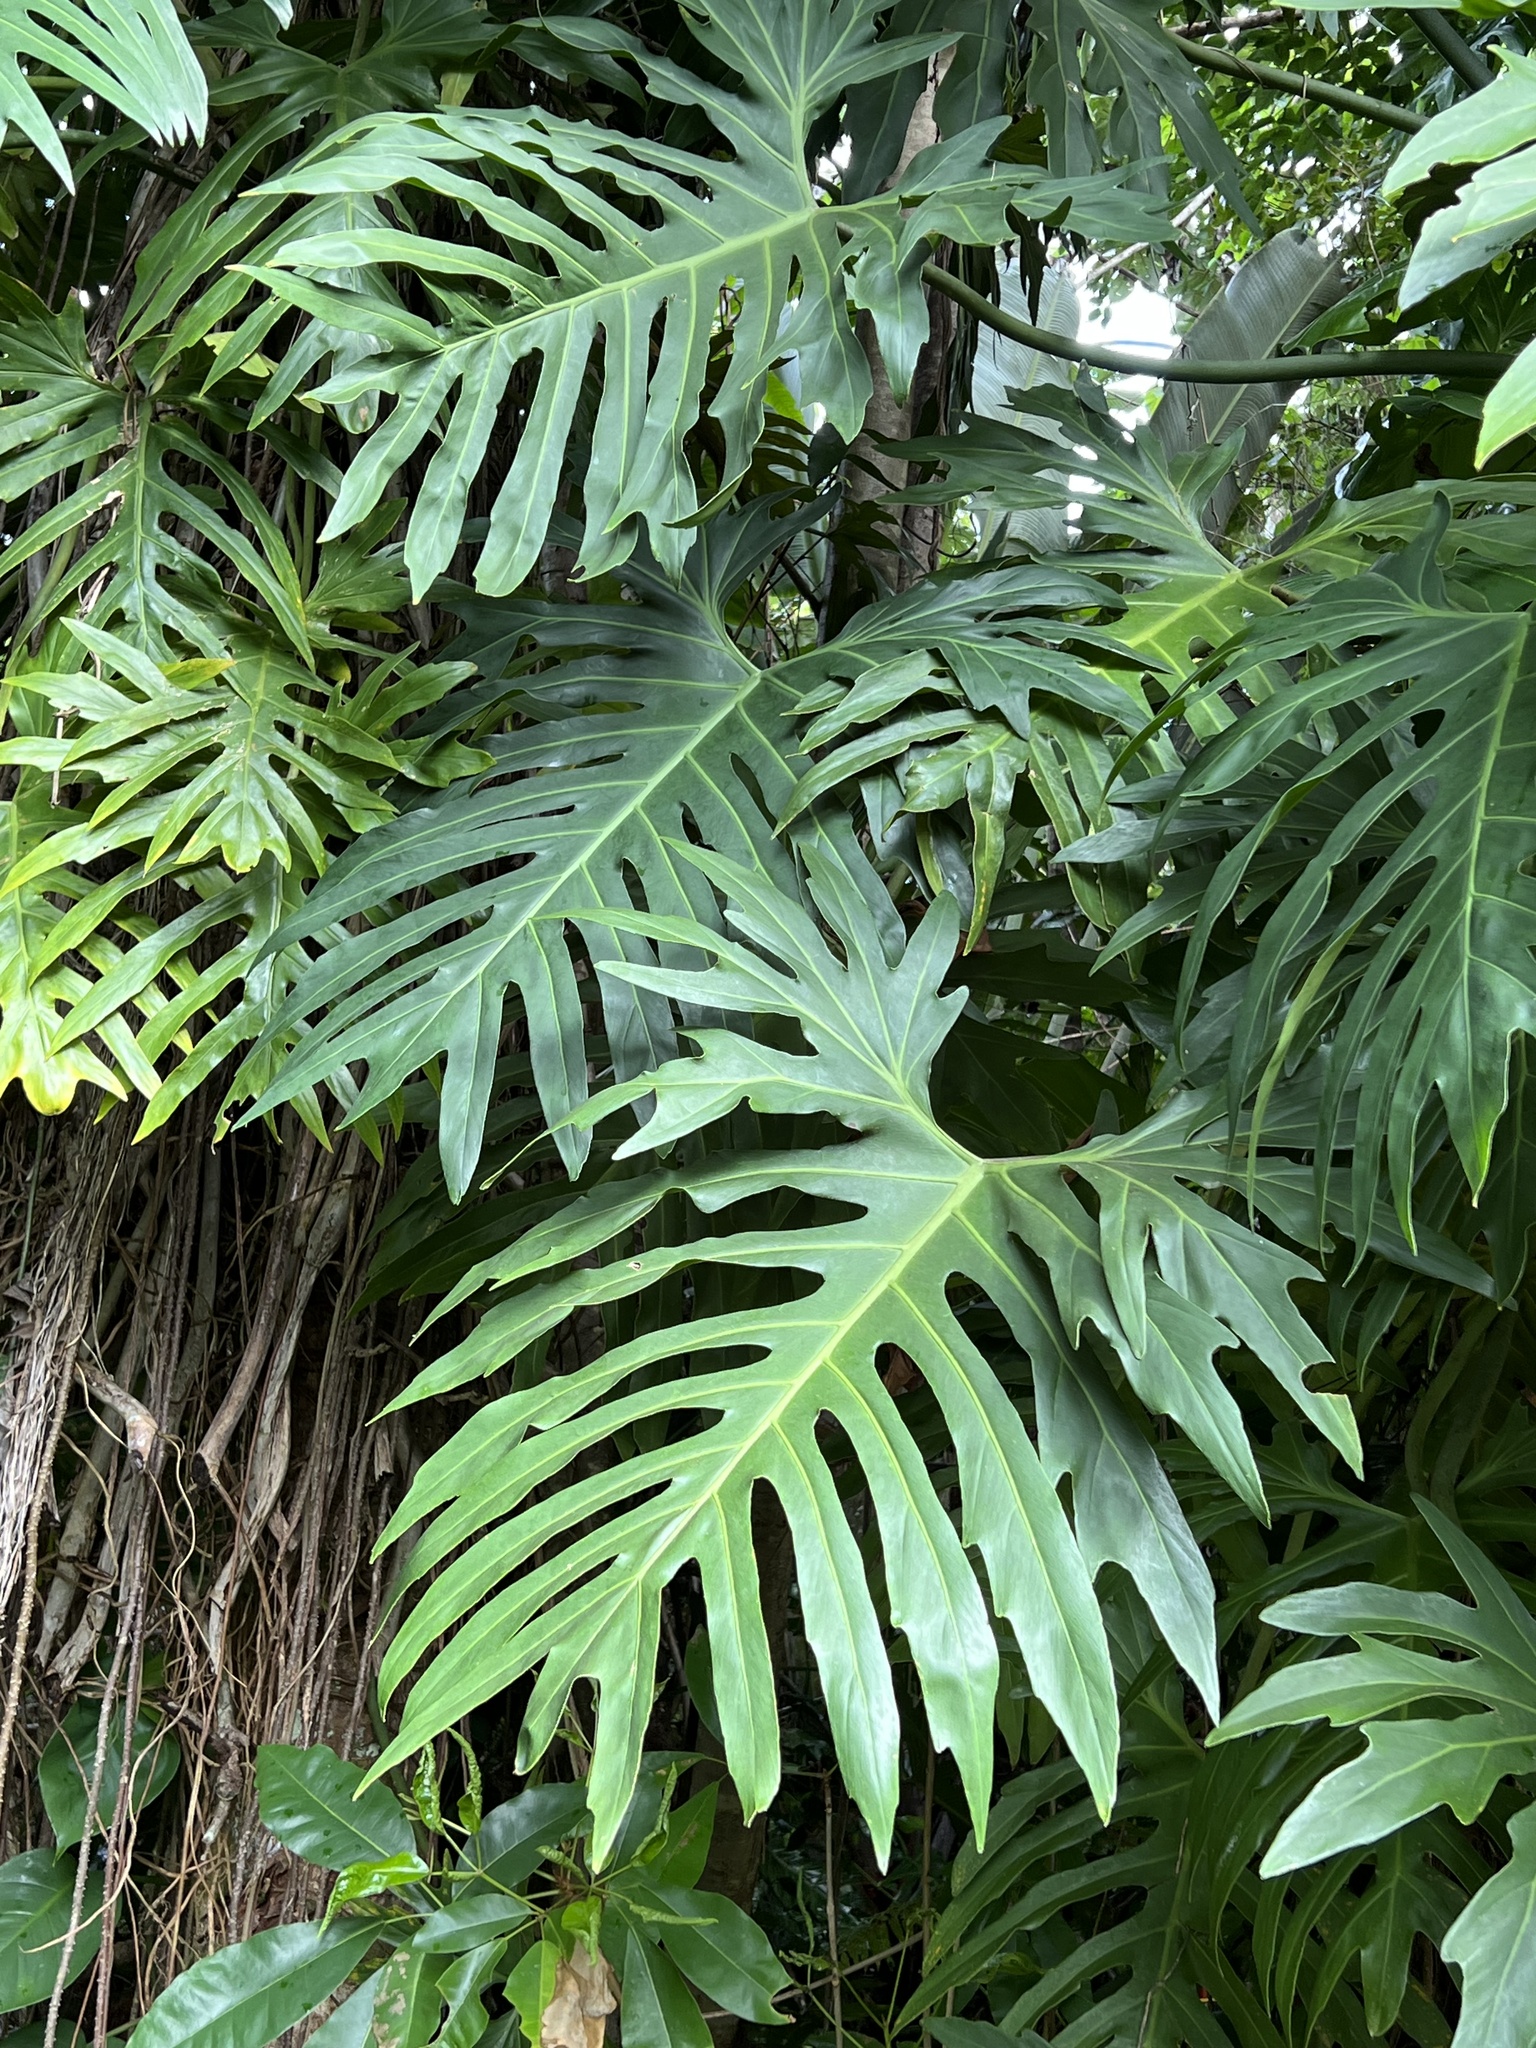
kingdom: Plantae
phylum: Tracheophyta
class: Liliopsida
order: Alismatales
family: Araceae
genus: Philodendron
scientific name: Philodendron radiatum
